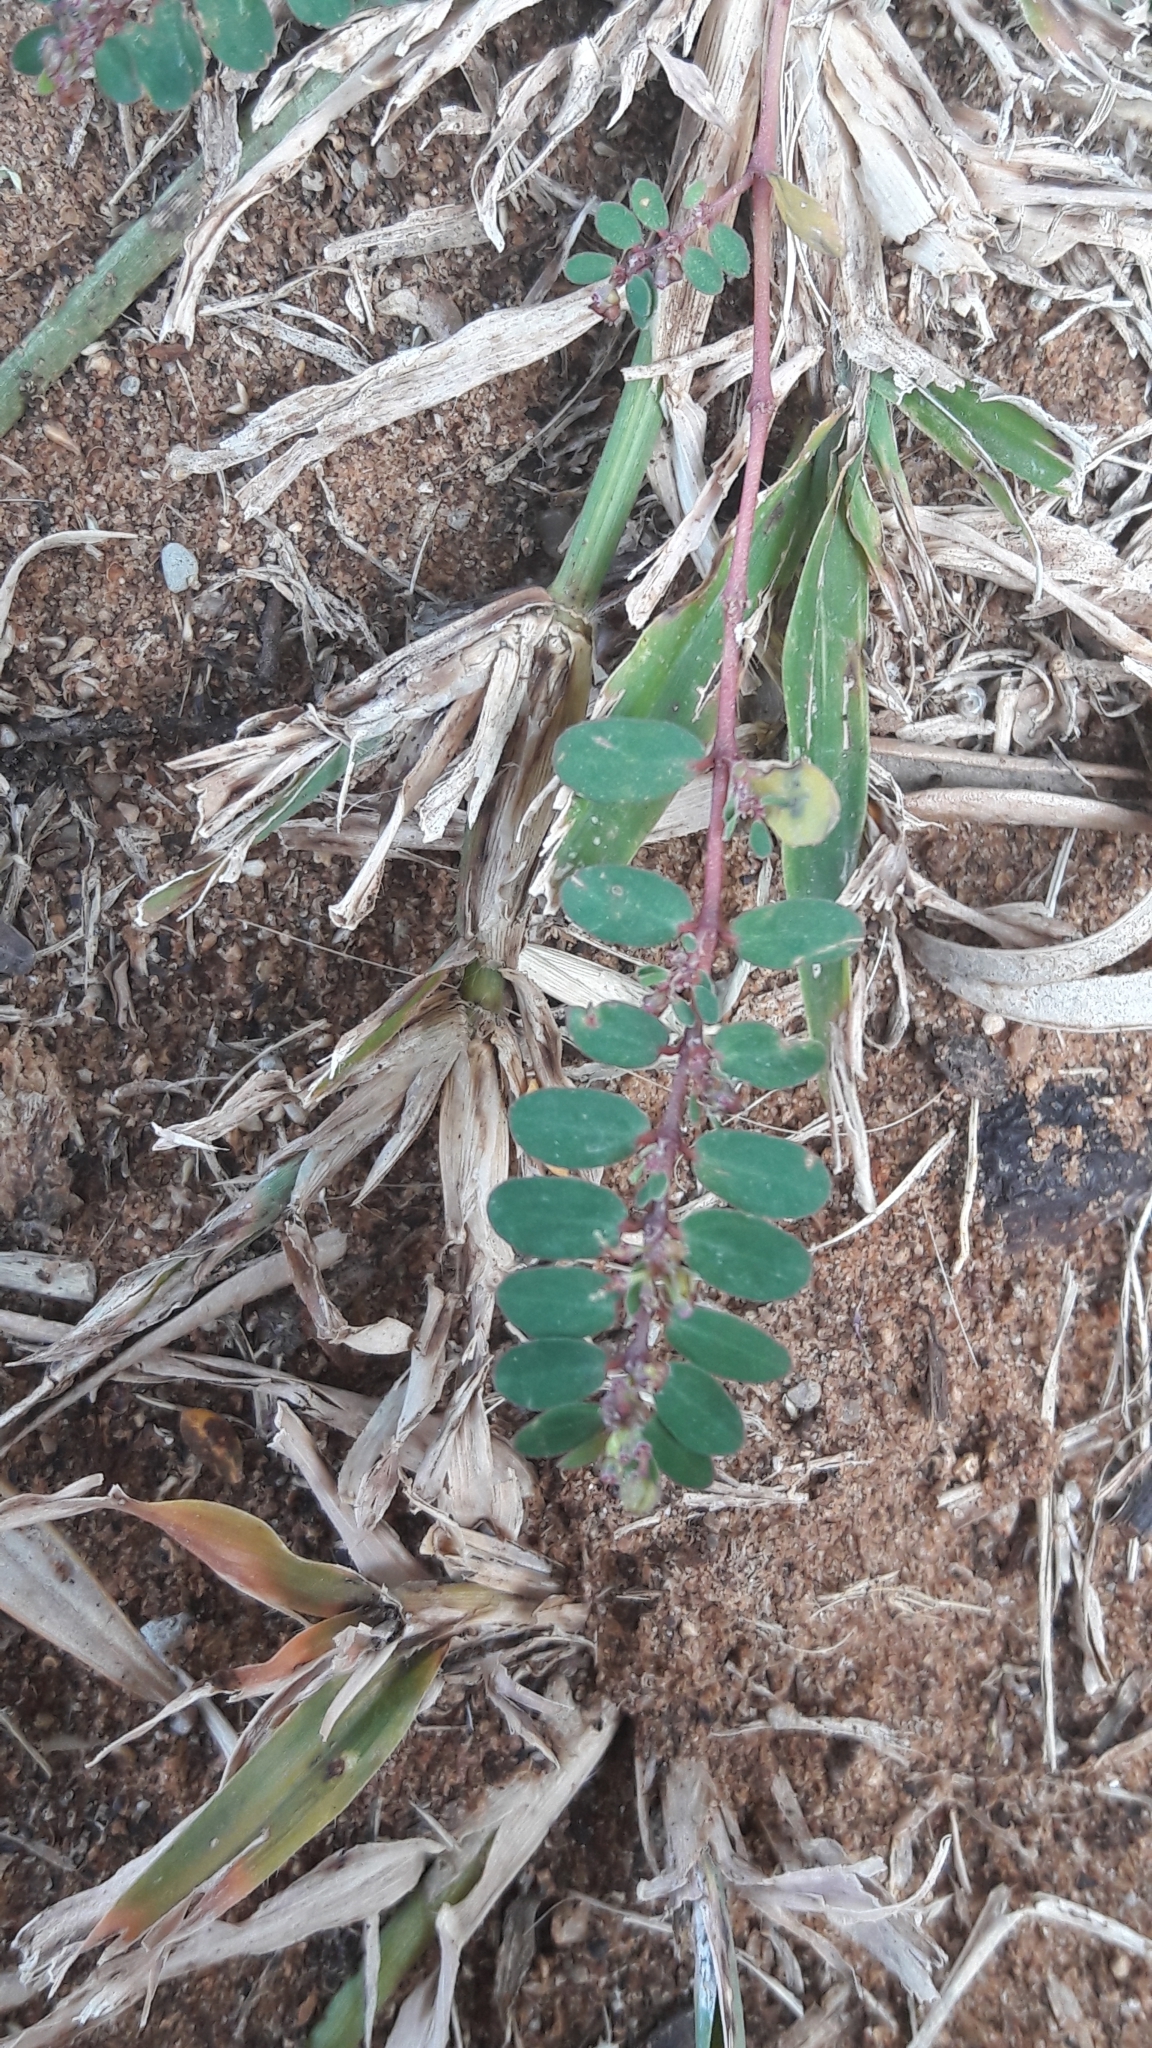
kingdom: Plantae
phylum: Tracheophyta
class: Magnoliopsida
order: Malpighiales
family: Euphorbiaceae
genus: Euphorbia
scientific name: Euphorbia prostrata
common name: Prostrate sandmat
